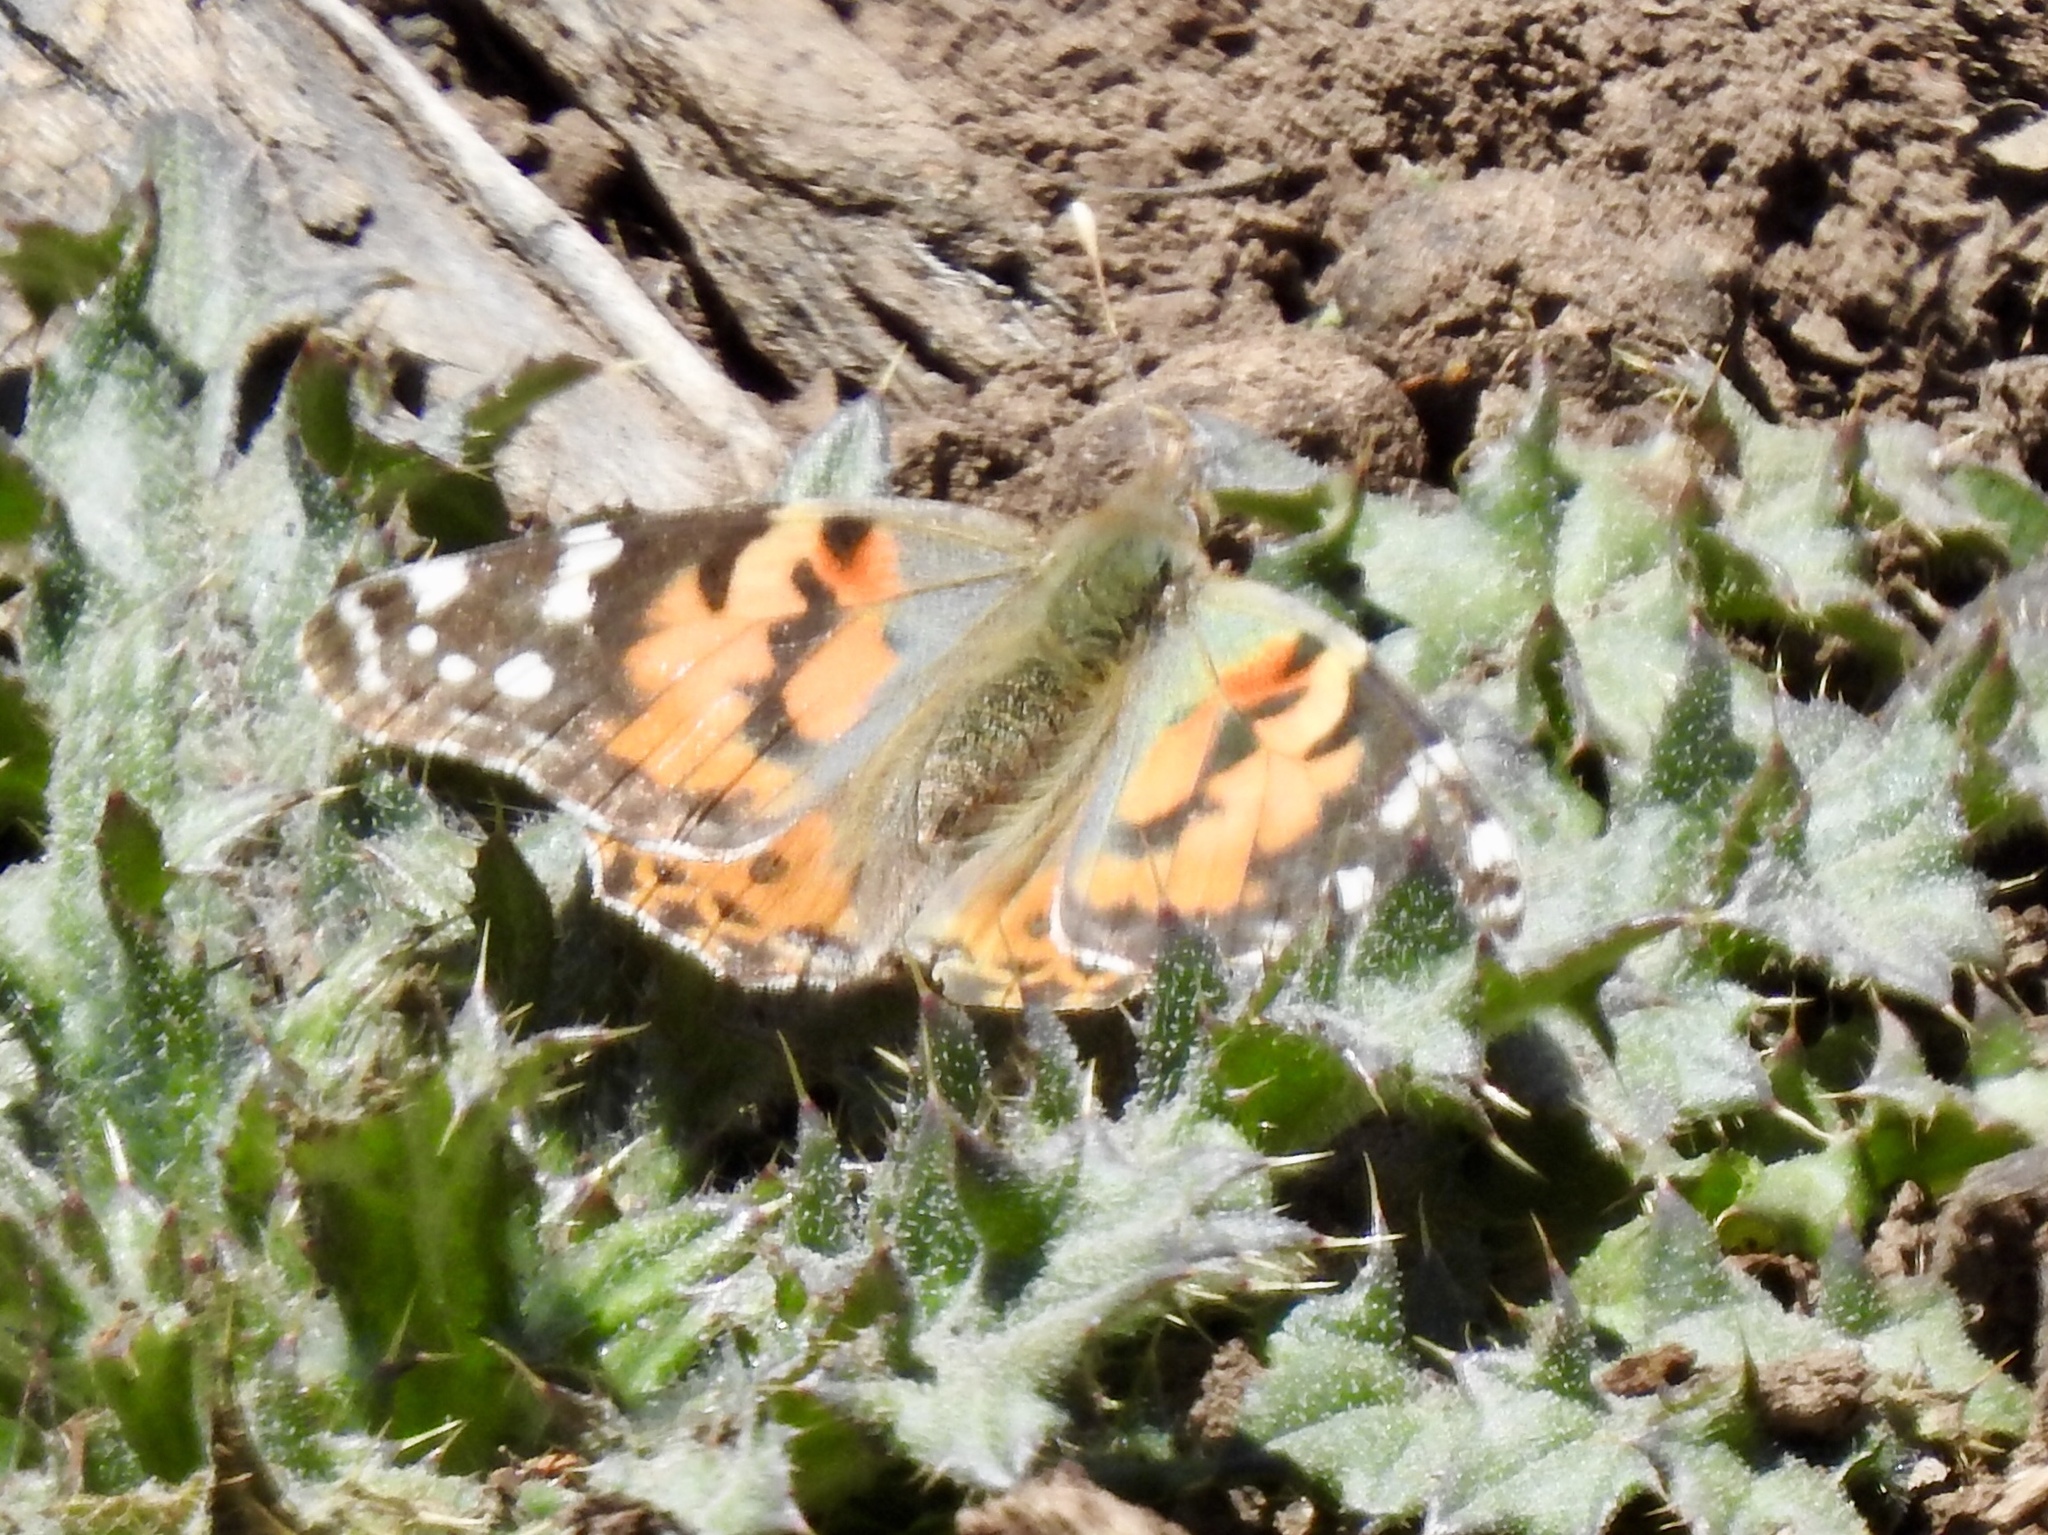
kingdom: Animalia
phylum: Arthropoda
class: Insecta
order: Lepidoptera
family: Nymphalidae
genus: Vanessa
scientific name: Vanessa cardui
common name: Painted lady
